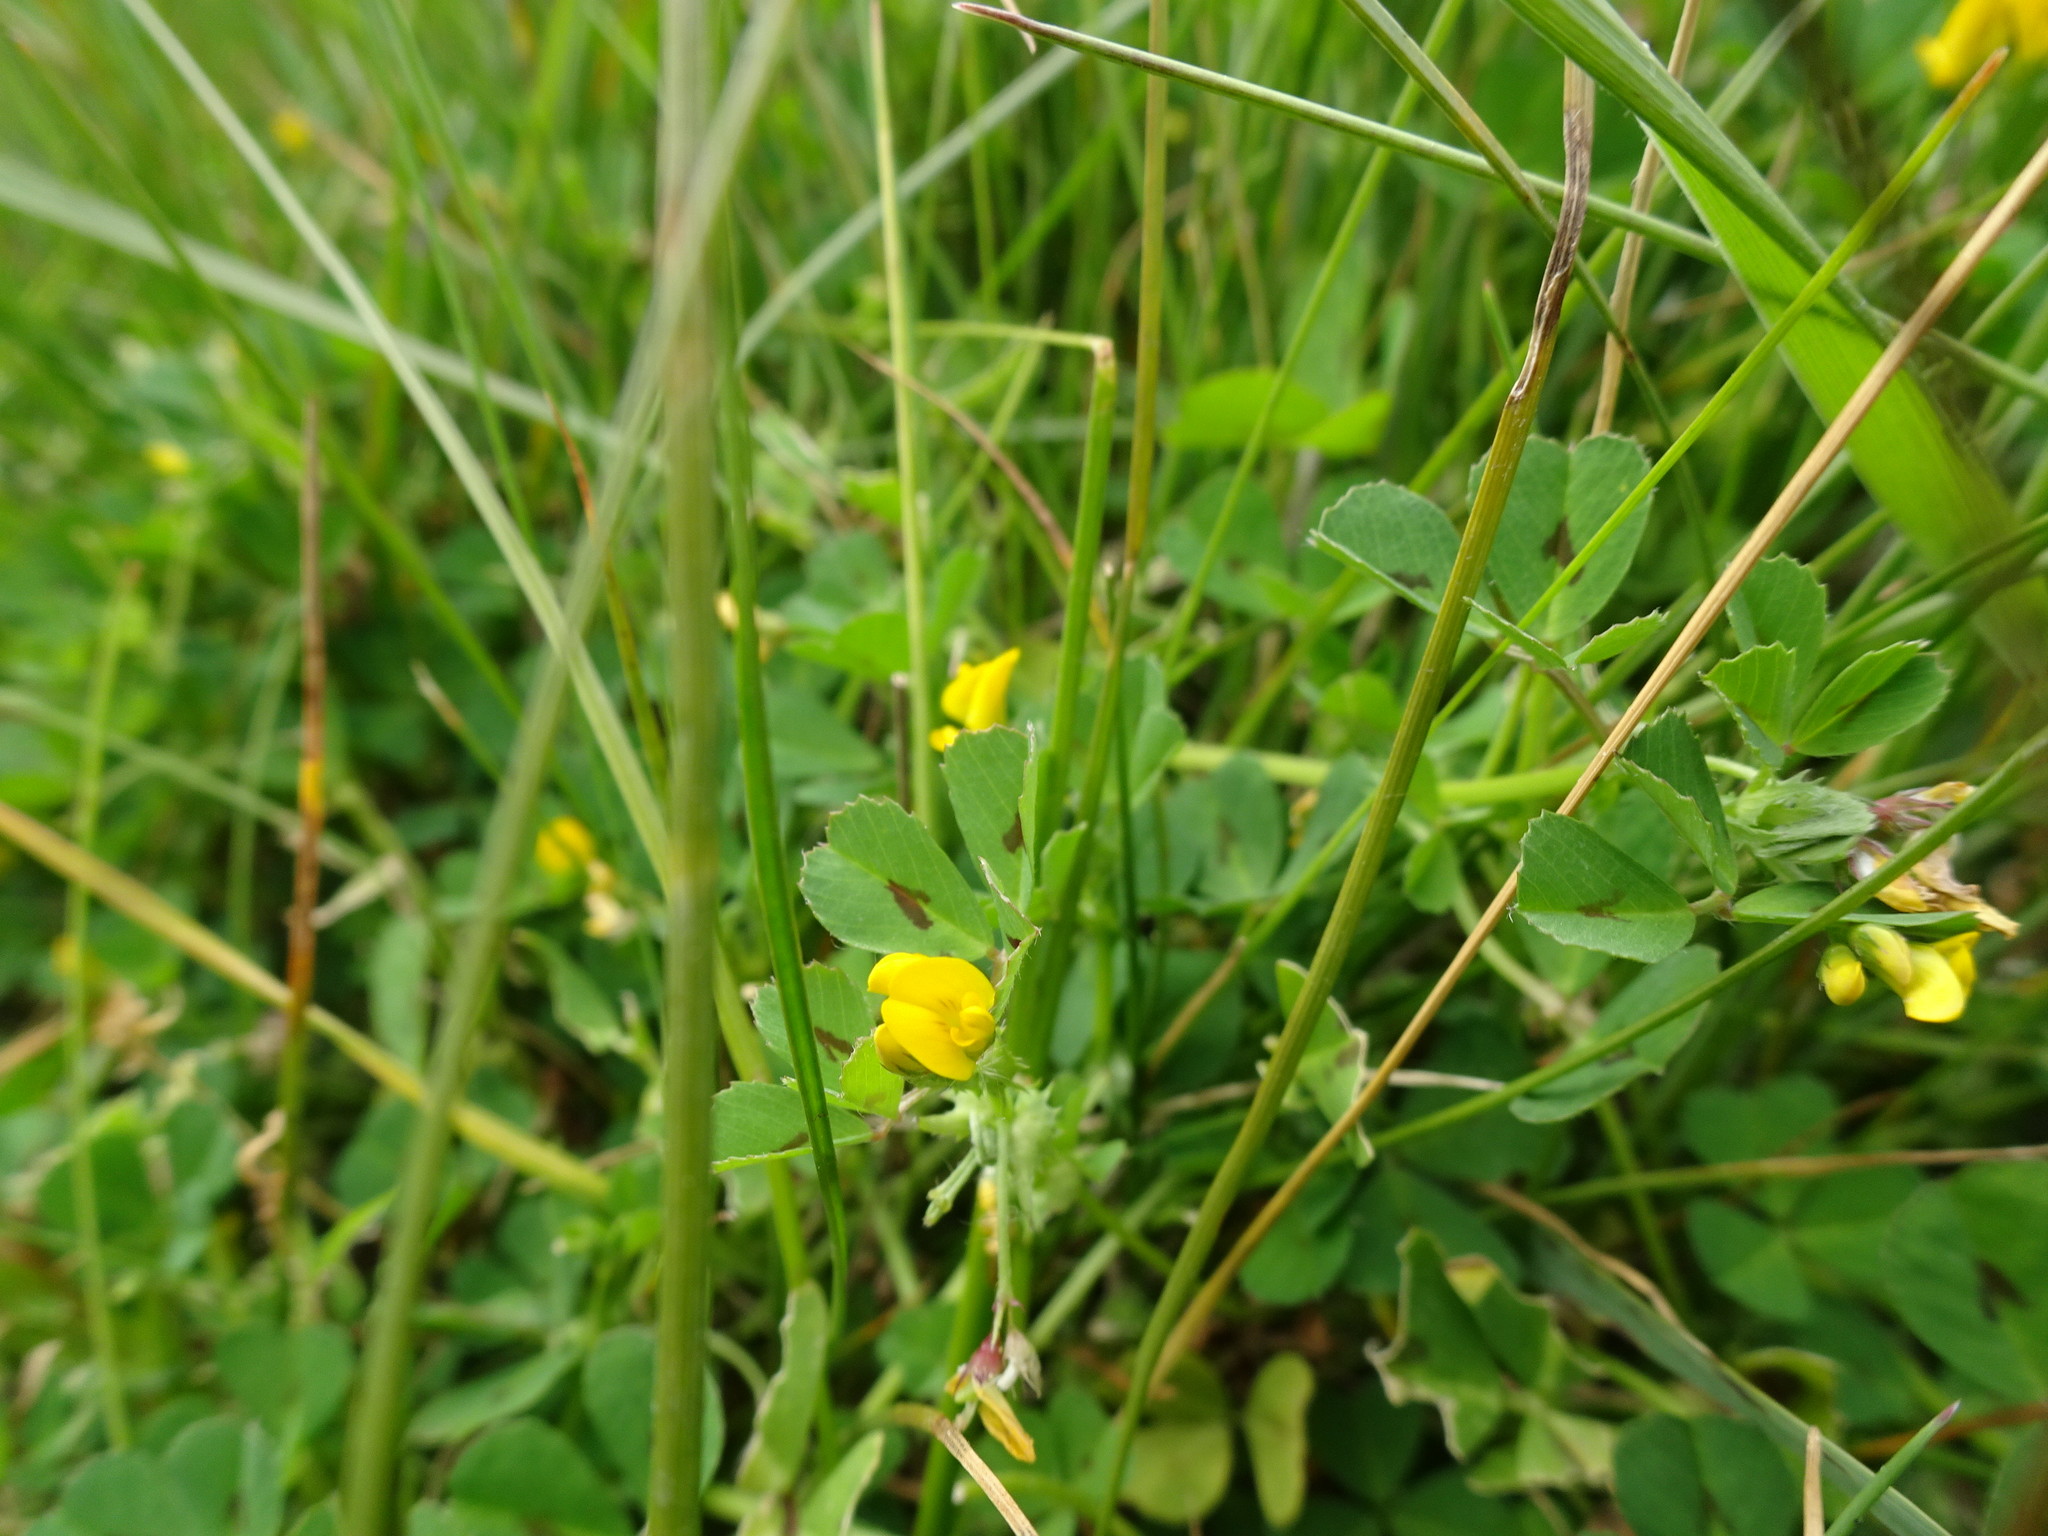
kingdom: Plantae
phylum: Tracheophyta
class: Magnoliopsida
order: Fabales
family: Fabaceae
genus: Medicago
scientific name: Medicago arabica
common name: Spotted medick
